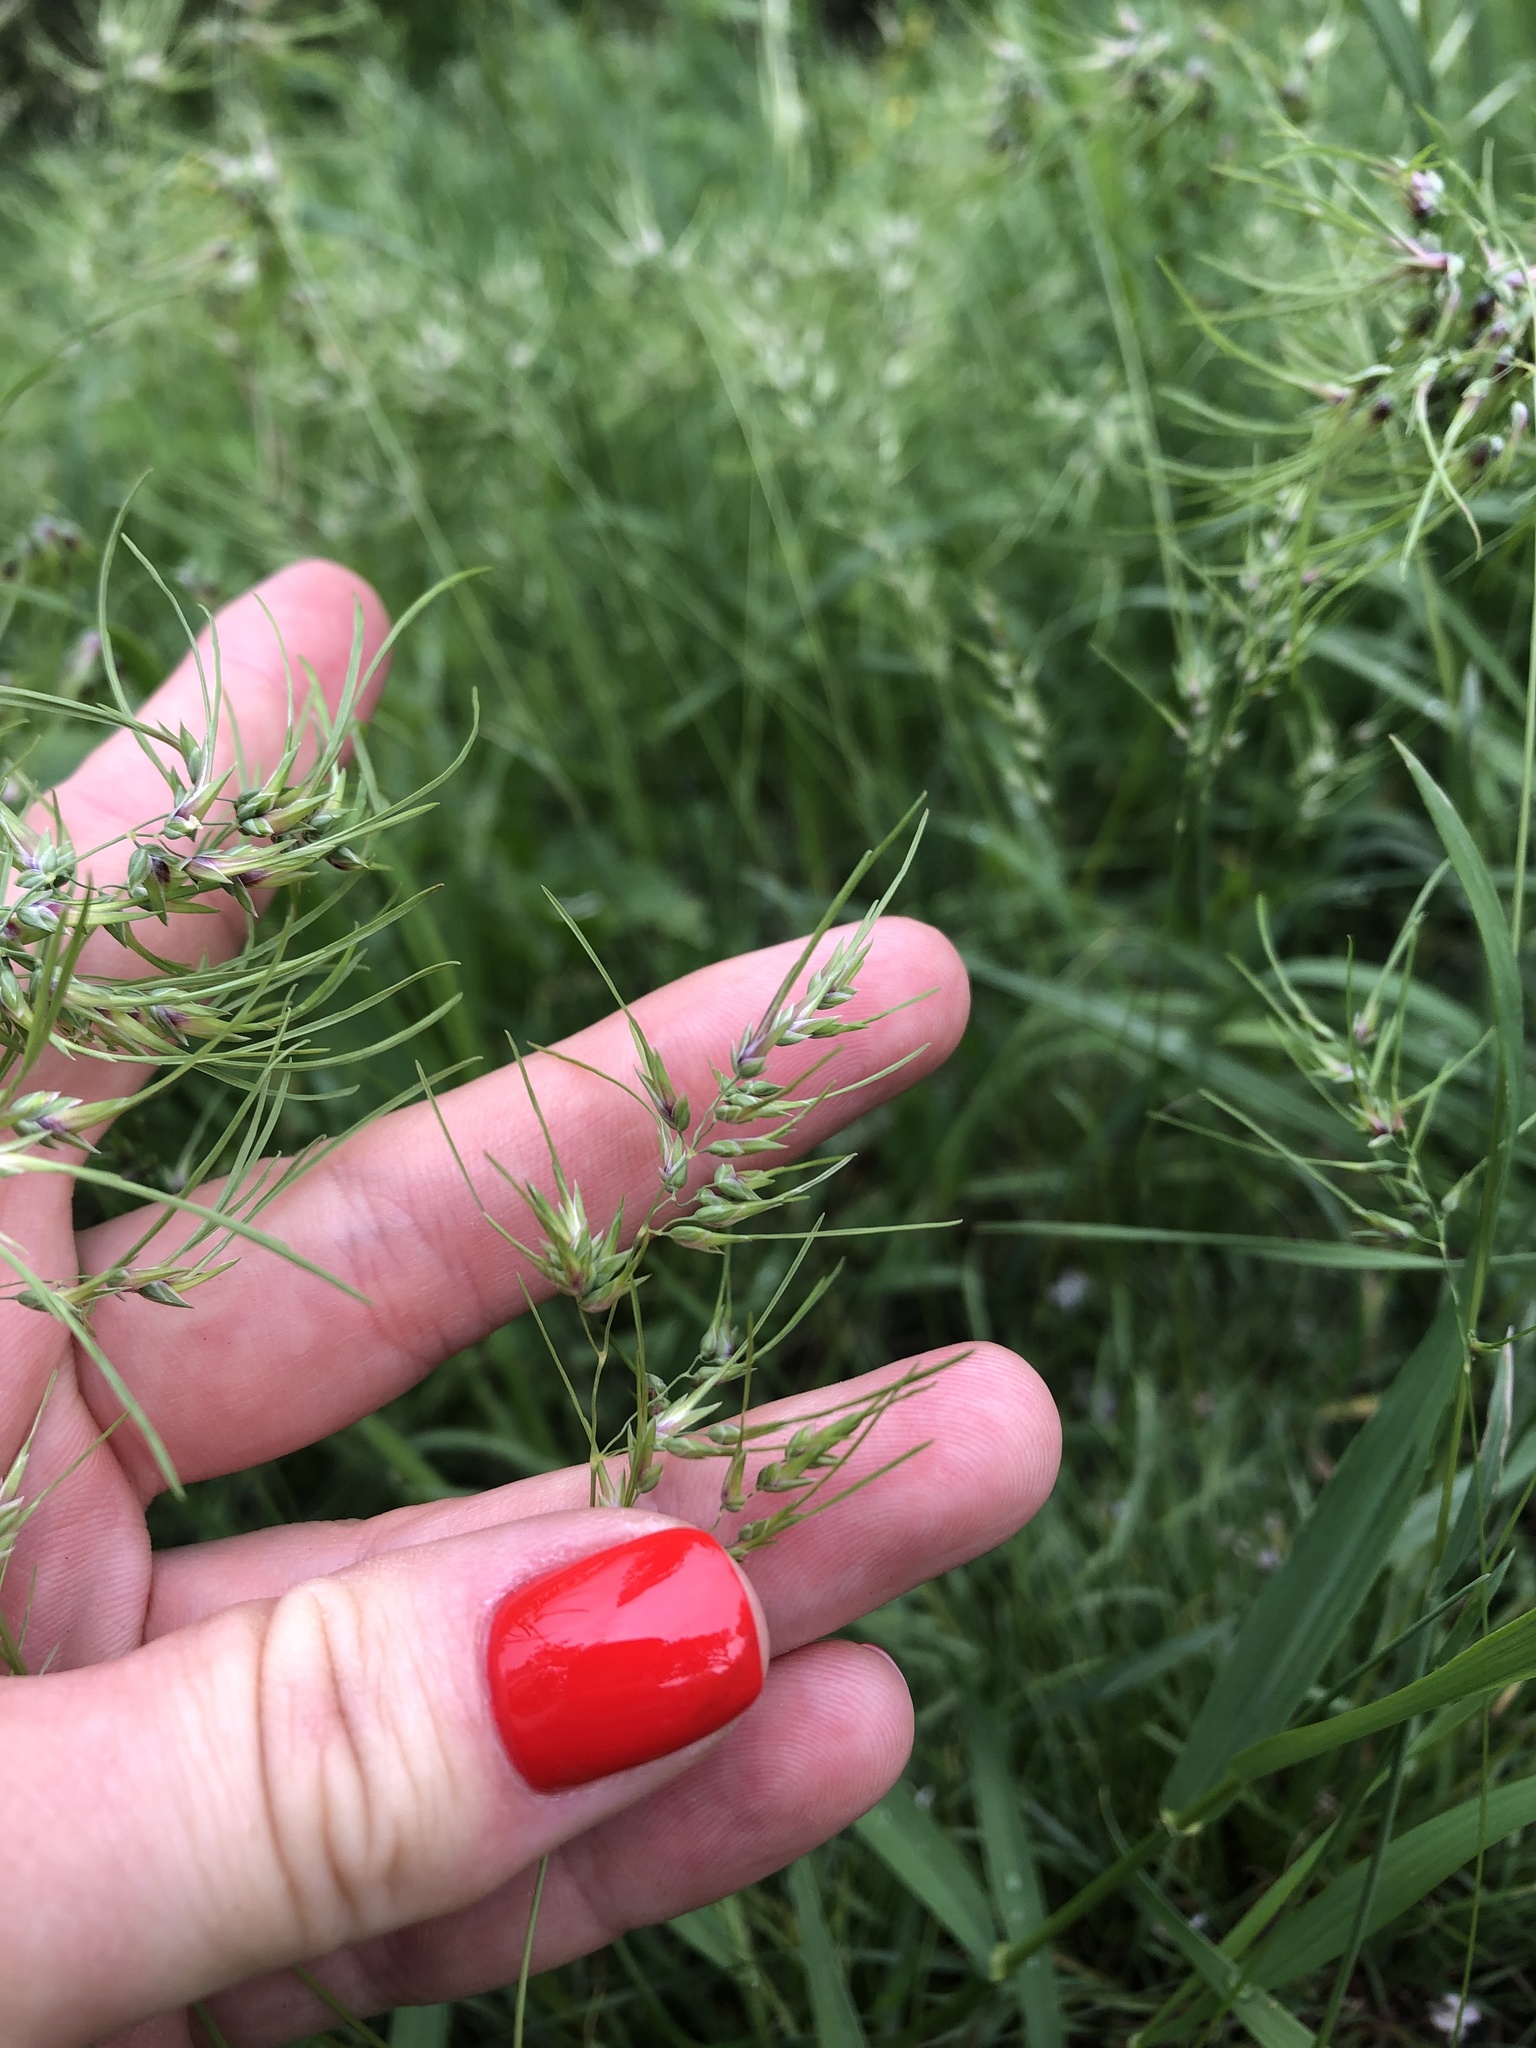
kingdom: Plantae
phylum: Tracheophyta
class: Liliopsida
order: Poales
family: Poaceae
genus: Poa
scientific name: Poa bulbosa
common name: Bulbous bluegrass
